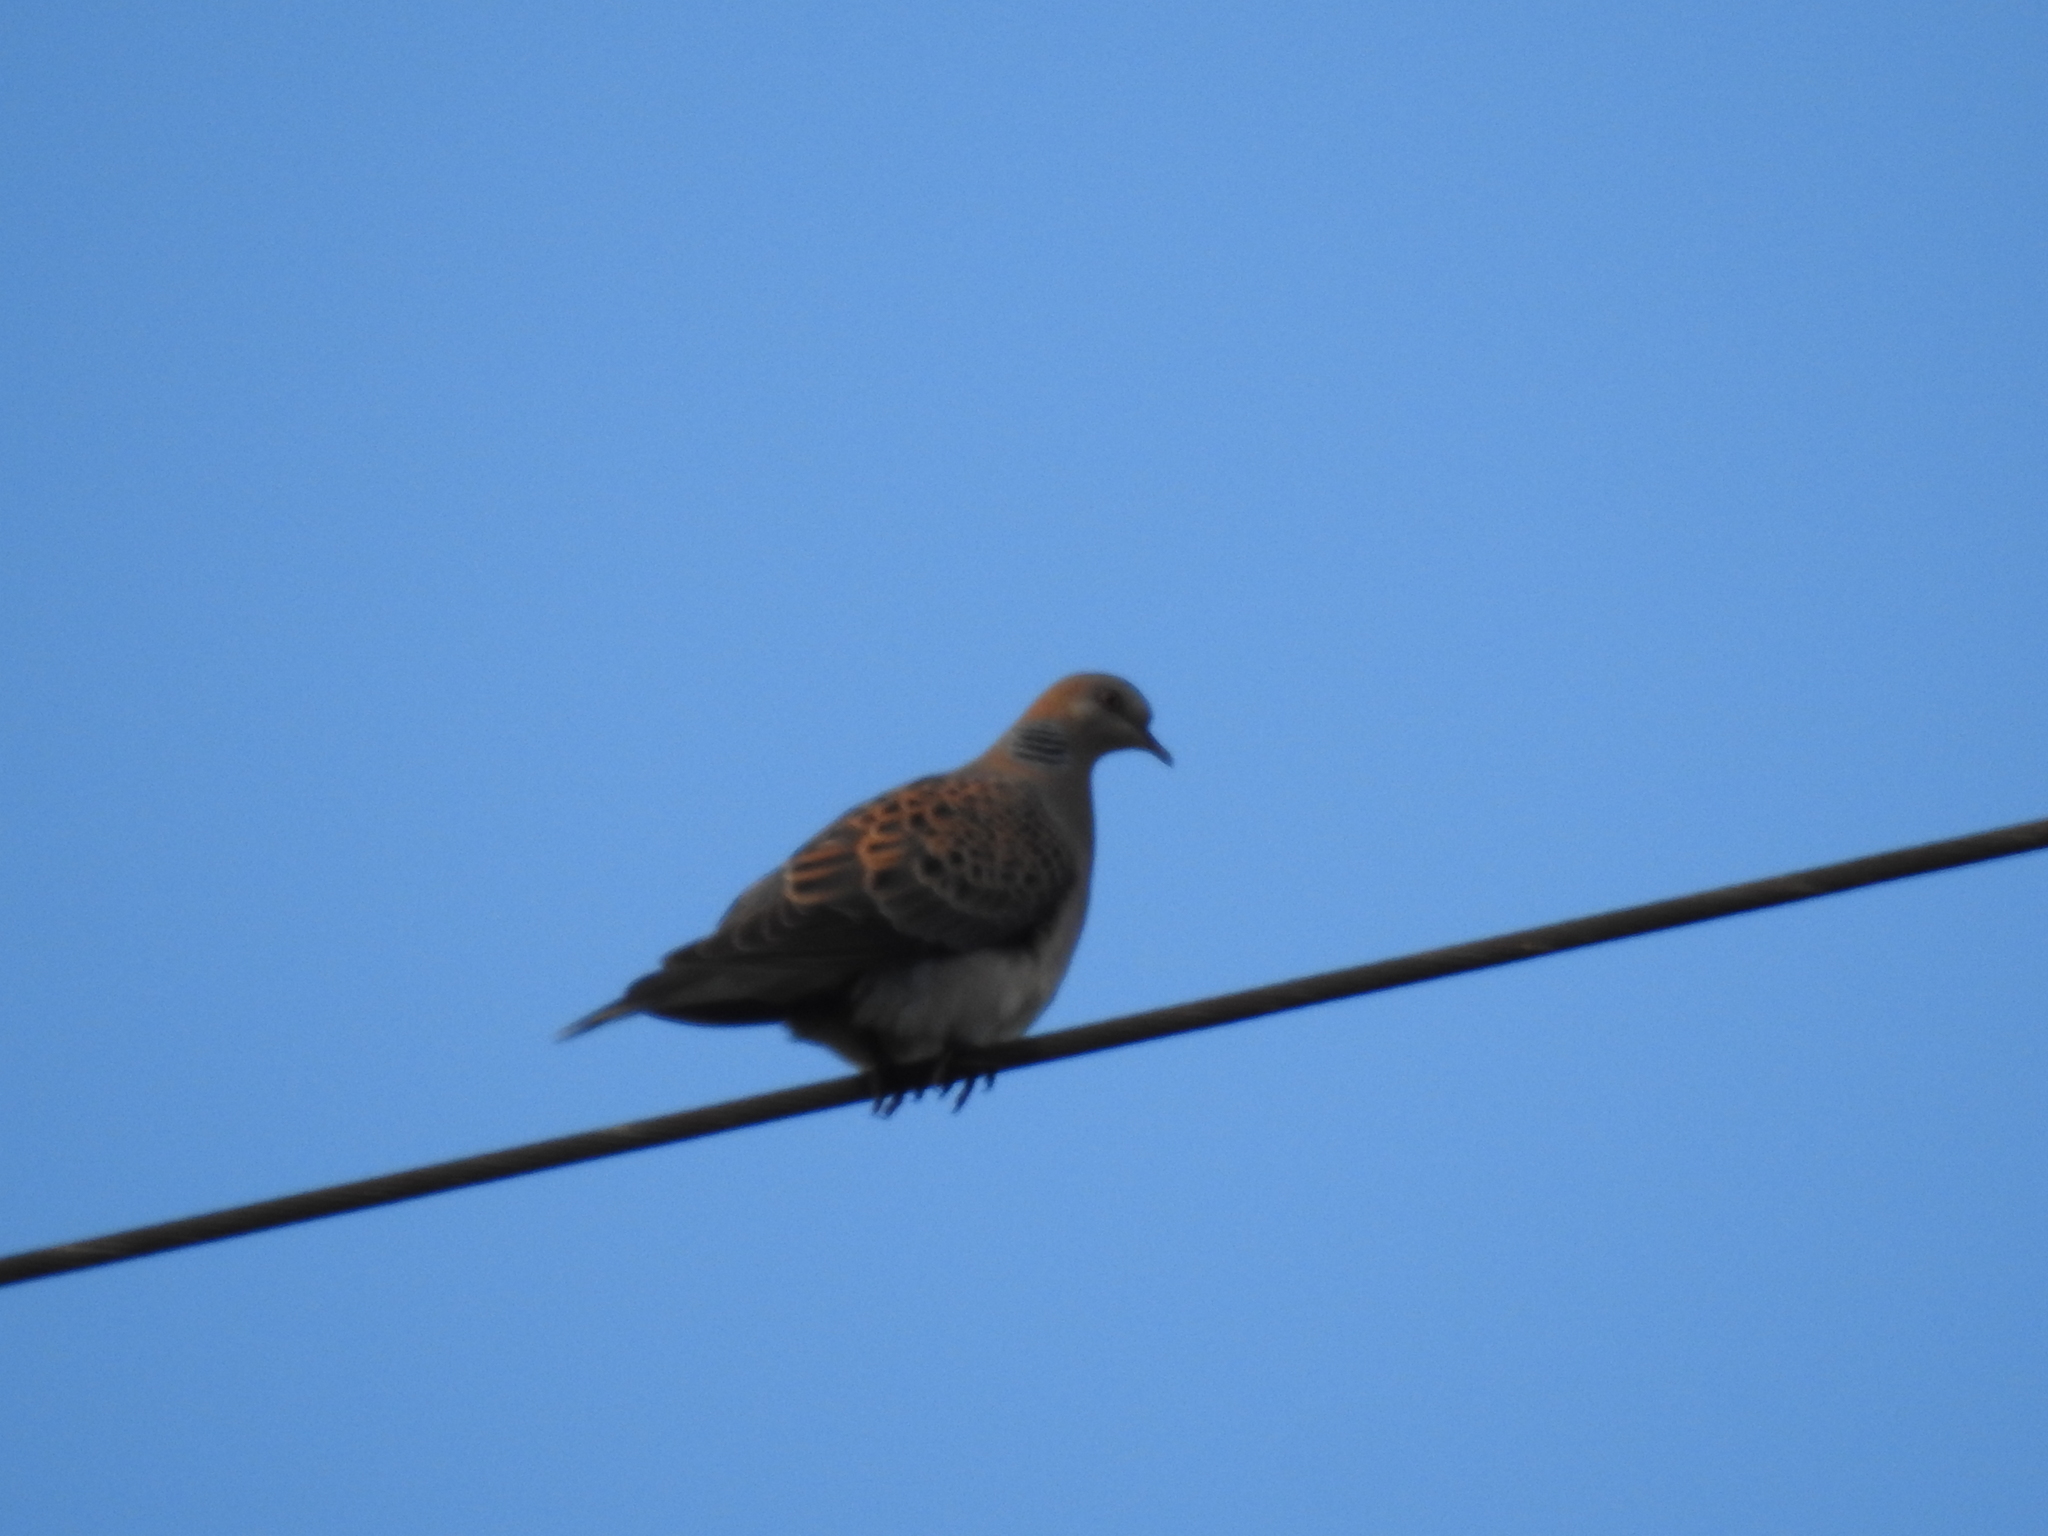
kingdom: Animalia
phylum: Chordata
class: Aves
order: Columbiformes
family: Columbidae
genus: Streptopelia
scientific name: Streptopelia orientalis
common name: Oriental turtle dove
